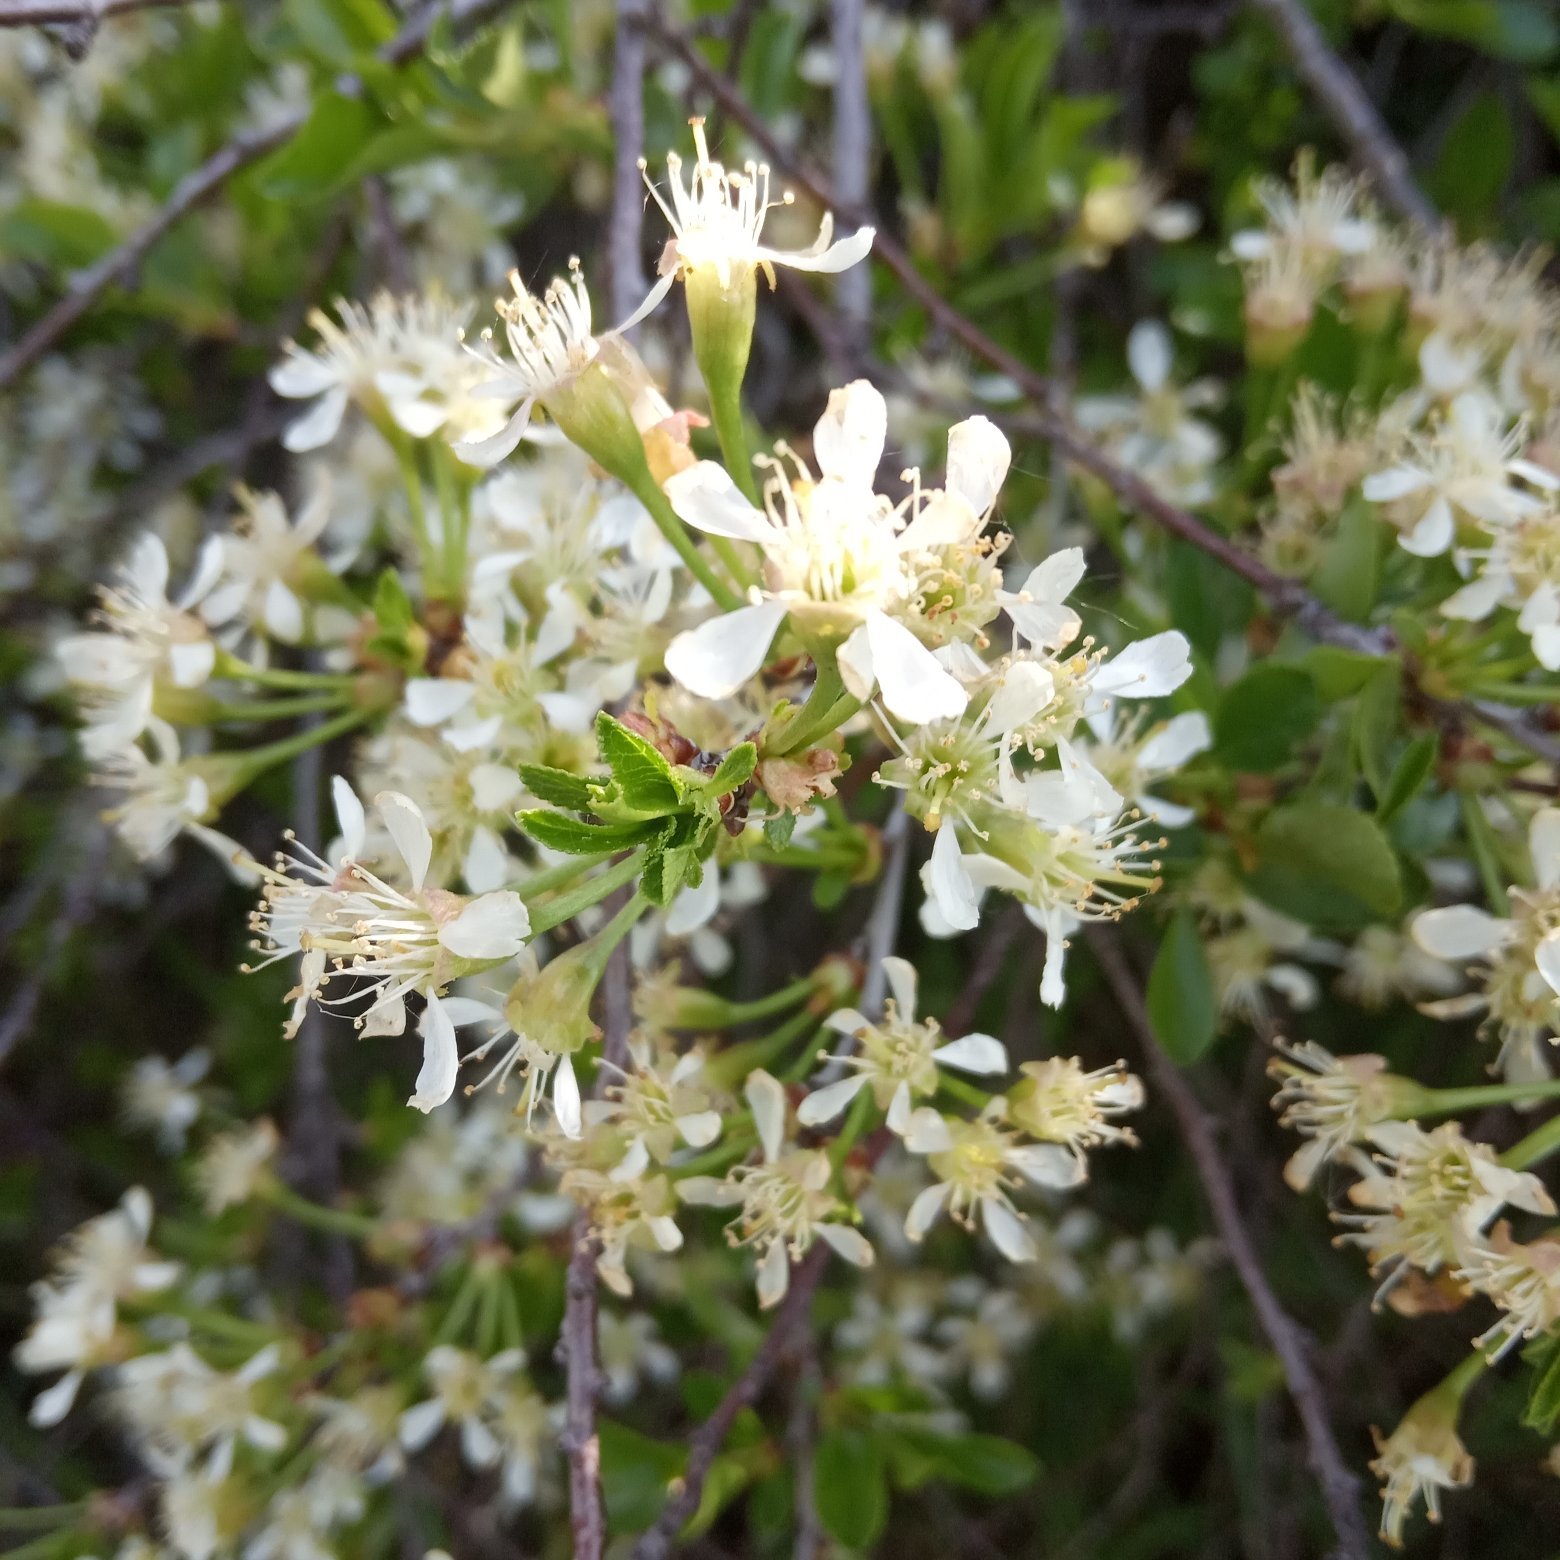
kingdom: Plantae
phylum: Tracheophyta
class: Magnoliopsida
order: Rosales
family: Rosaceae
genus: Prunus
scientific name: Prunus fruticosa
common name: European dwarf cherry
